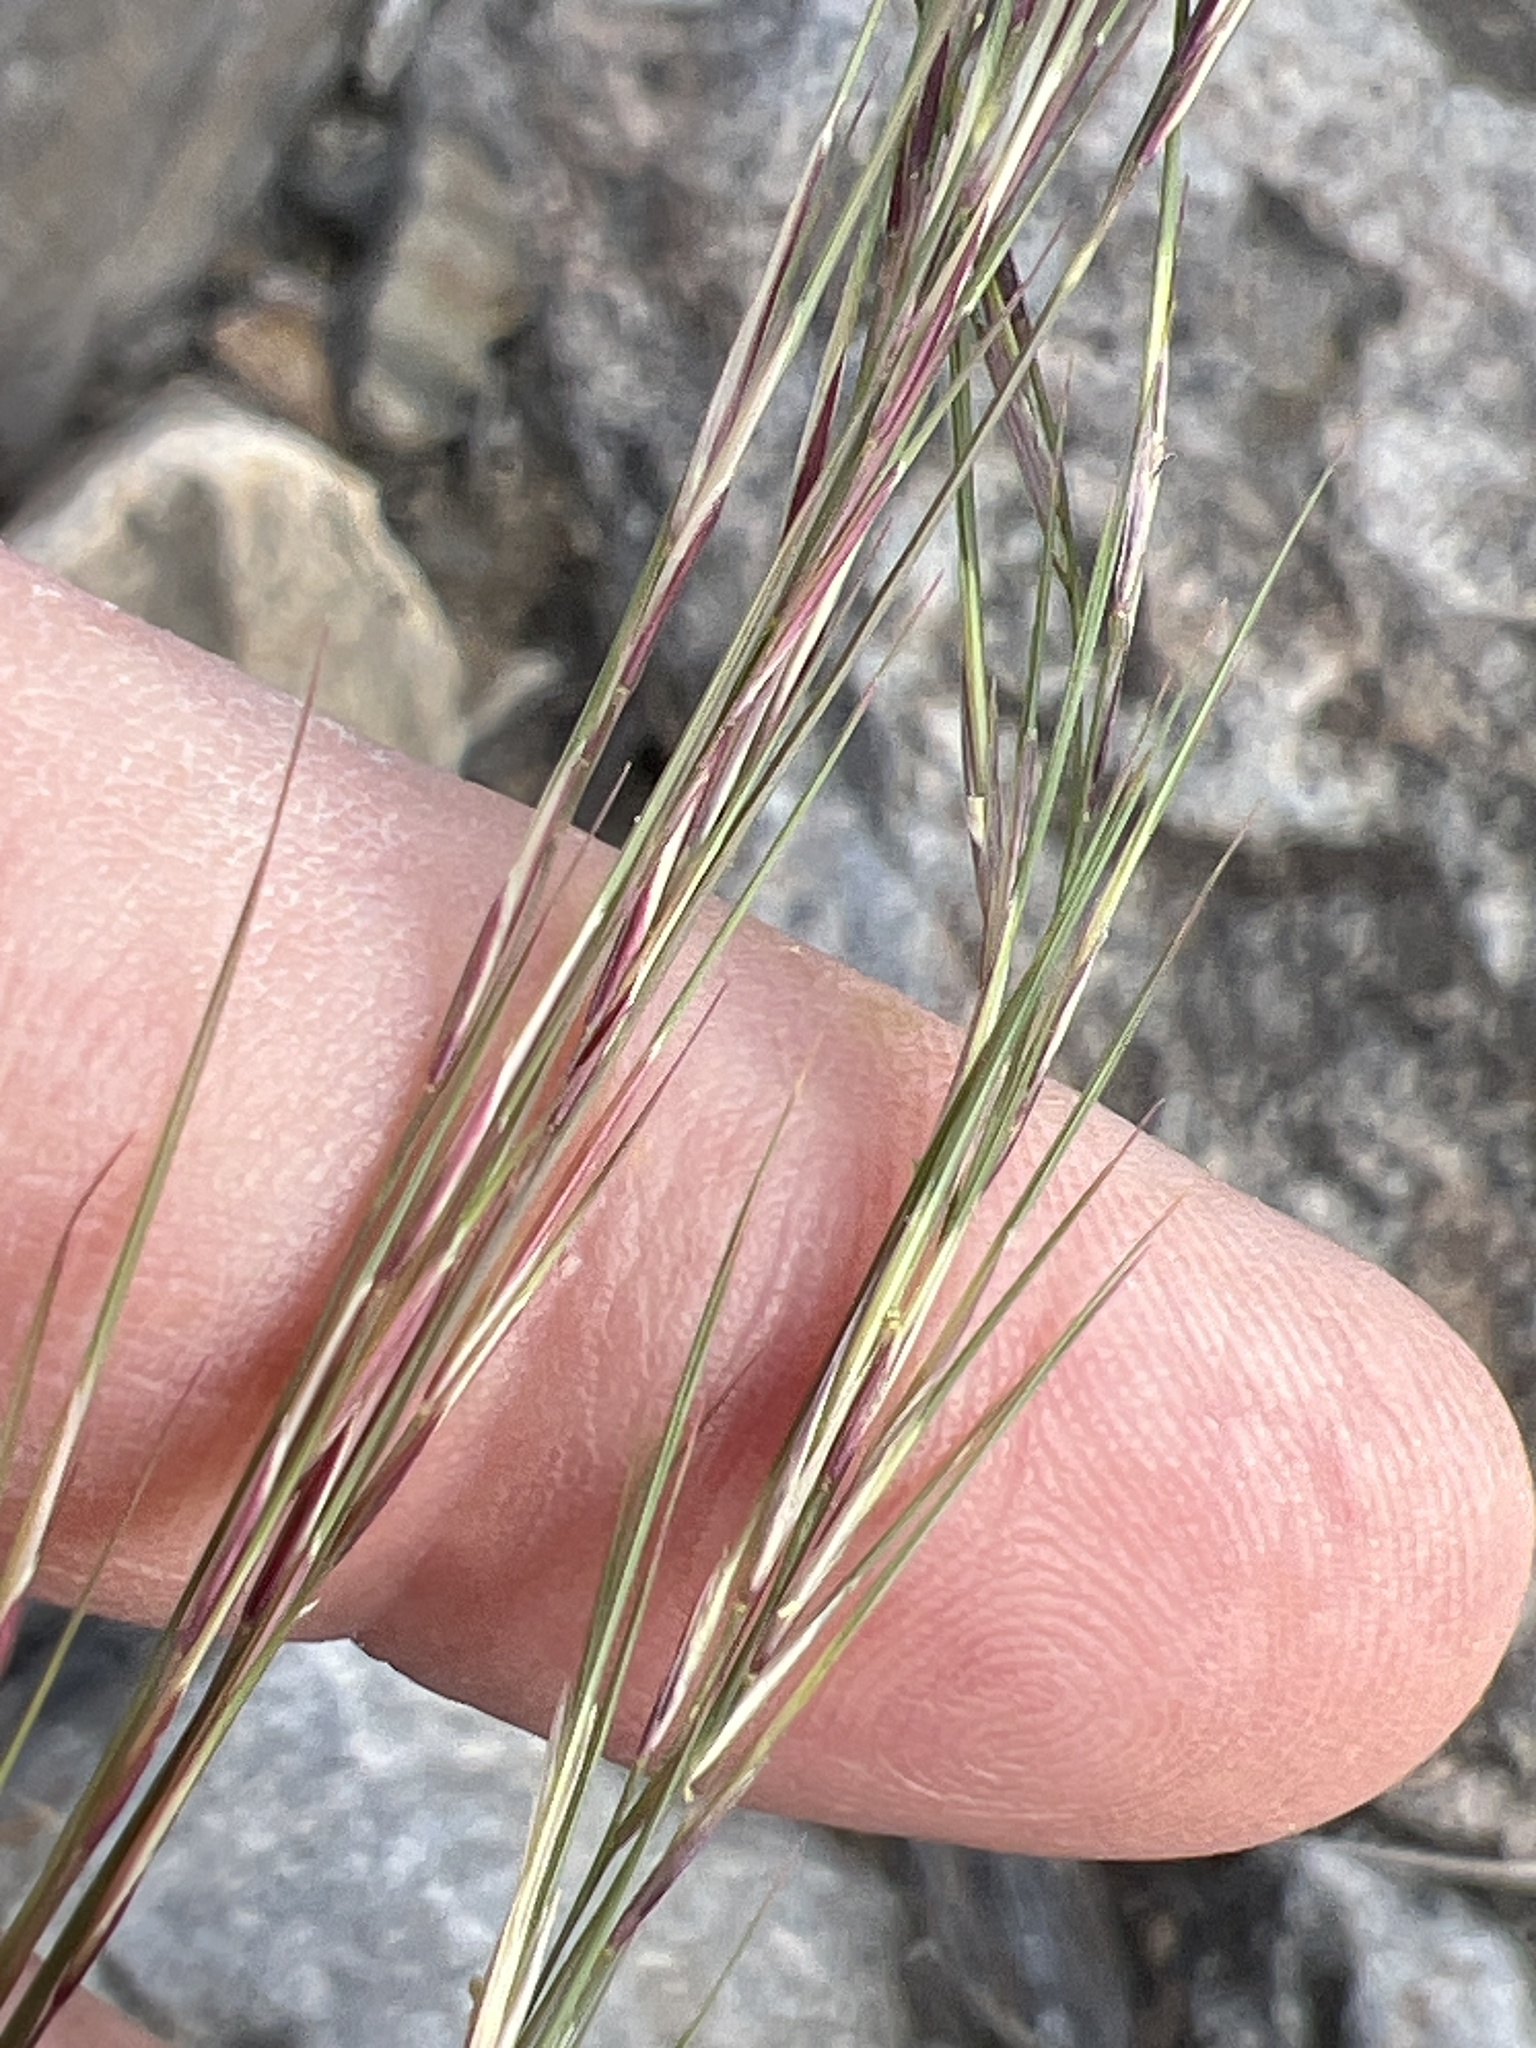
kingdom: Plantae
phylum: Tracheophyta
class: Liliopsida
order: Poales
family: Poaceae
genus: Aristida
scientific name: Aristida adscensionis
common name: Sixweeks threeawn
